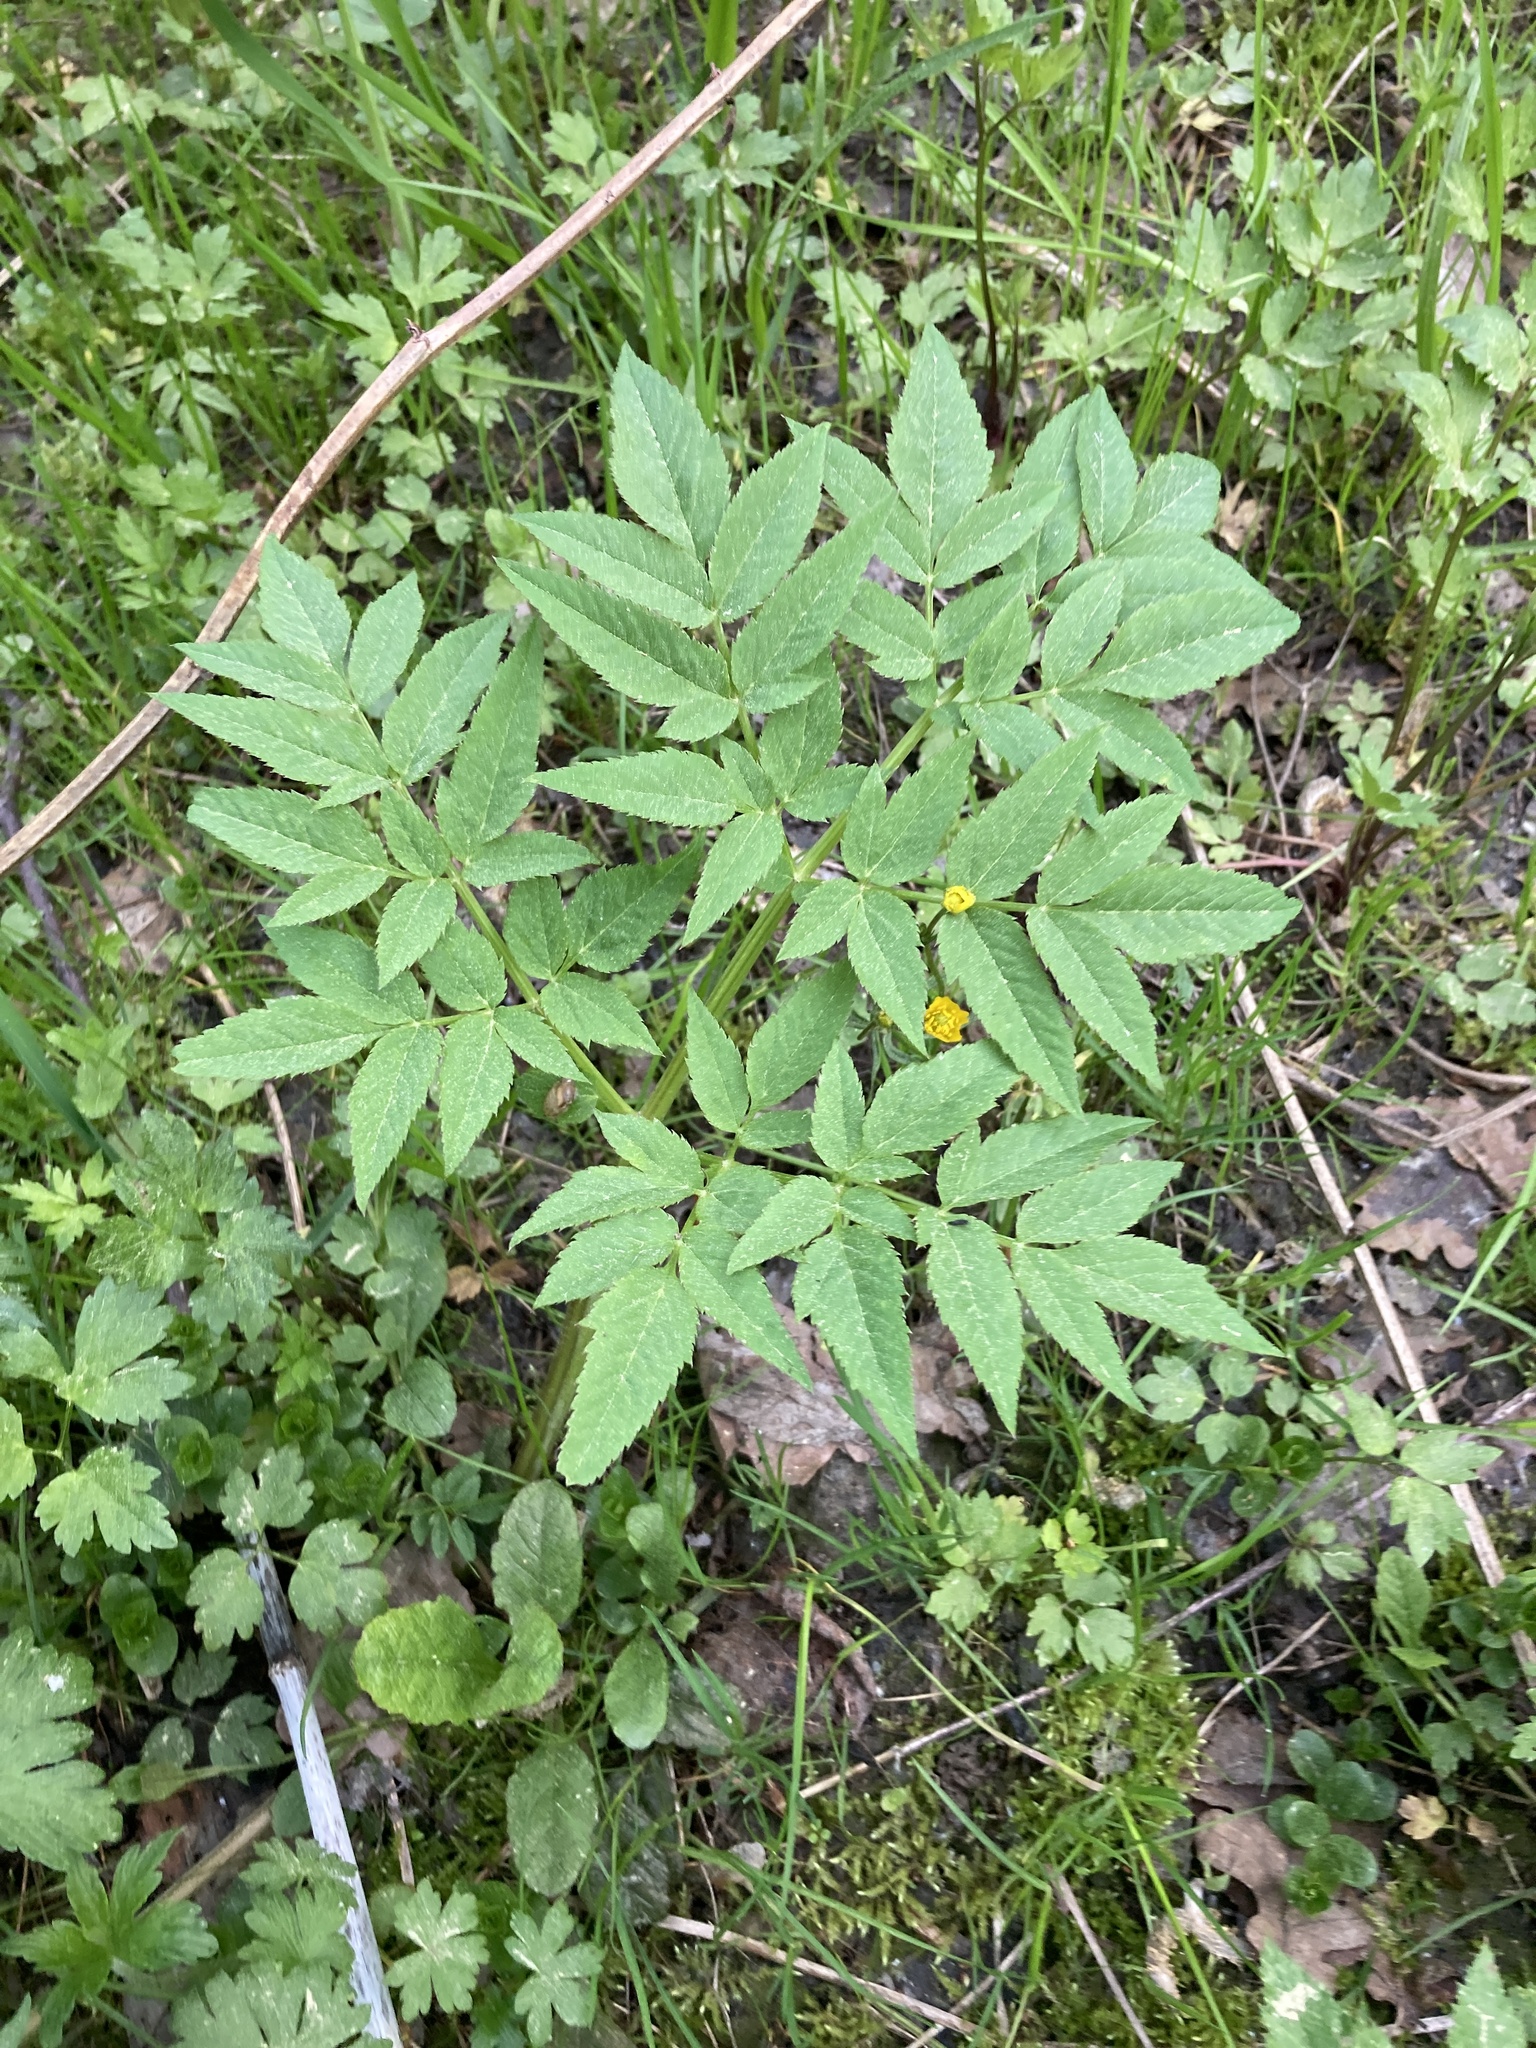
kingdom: Plantae
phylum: Tracheophyta
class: Magnoliopsida
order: Apiales
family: Apiaceae
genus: Angelica
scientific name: Angelica sylvestris
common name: Wild angelica
